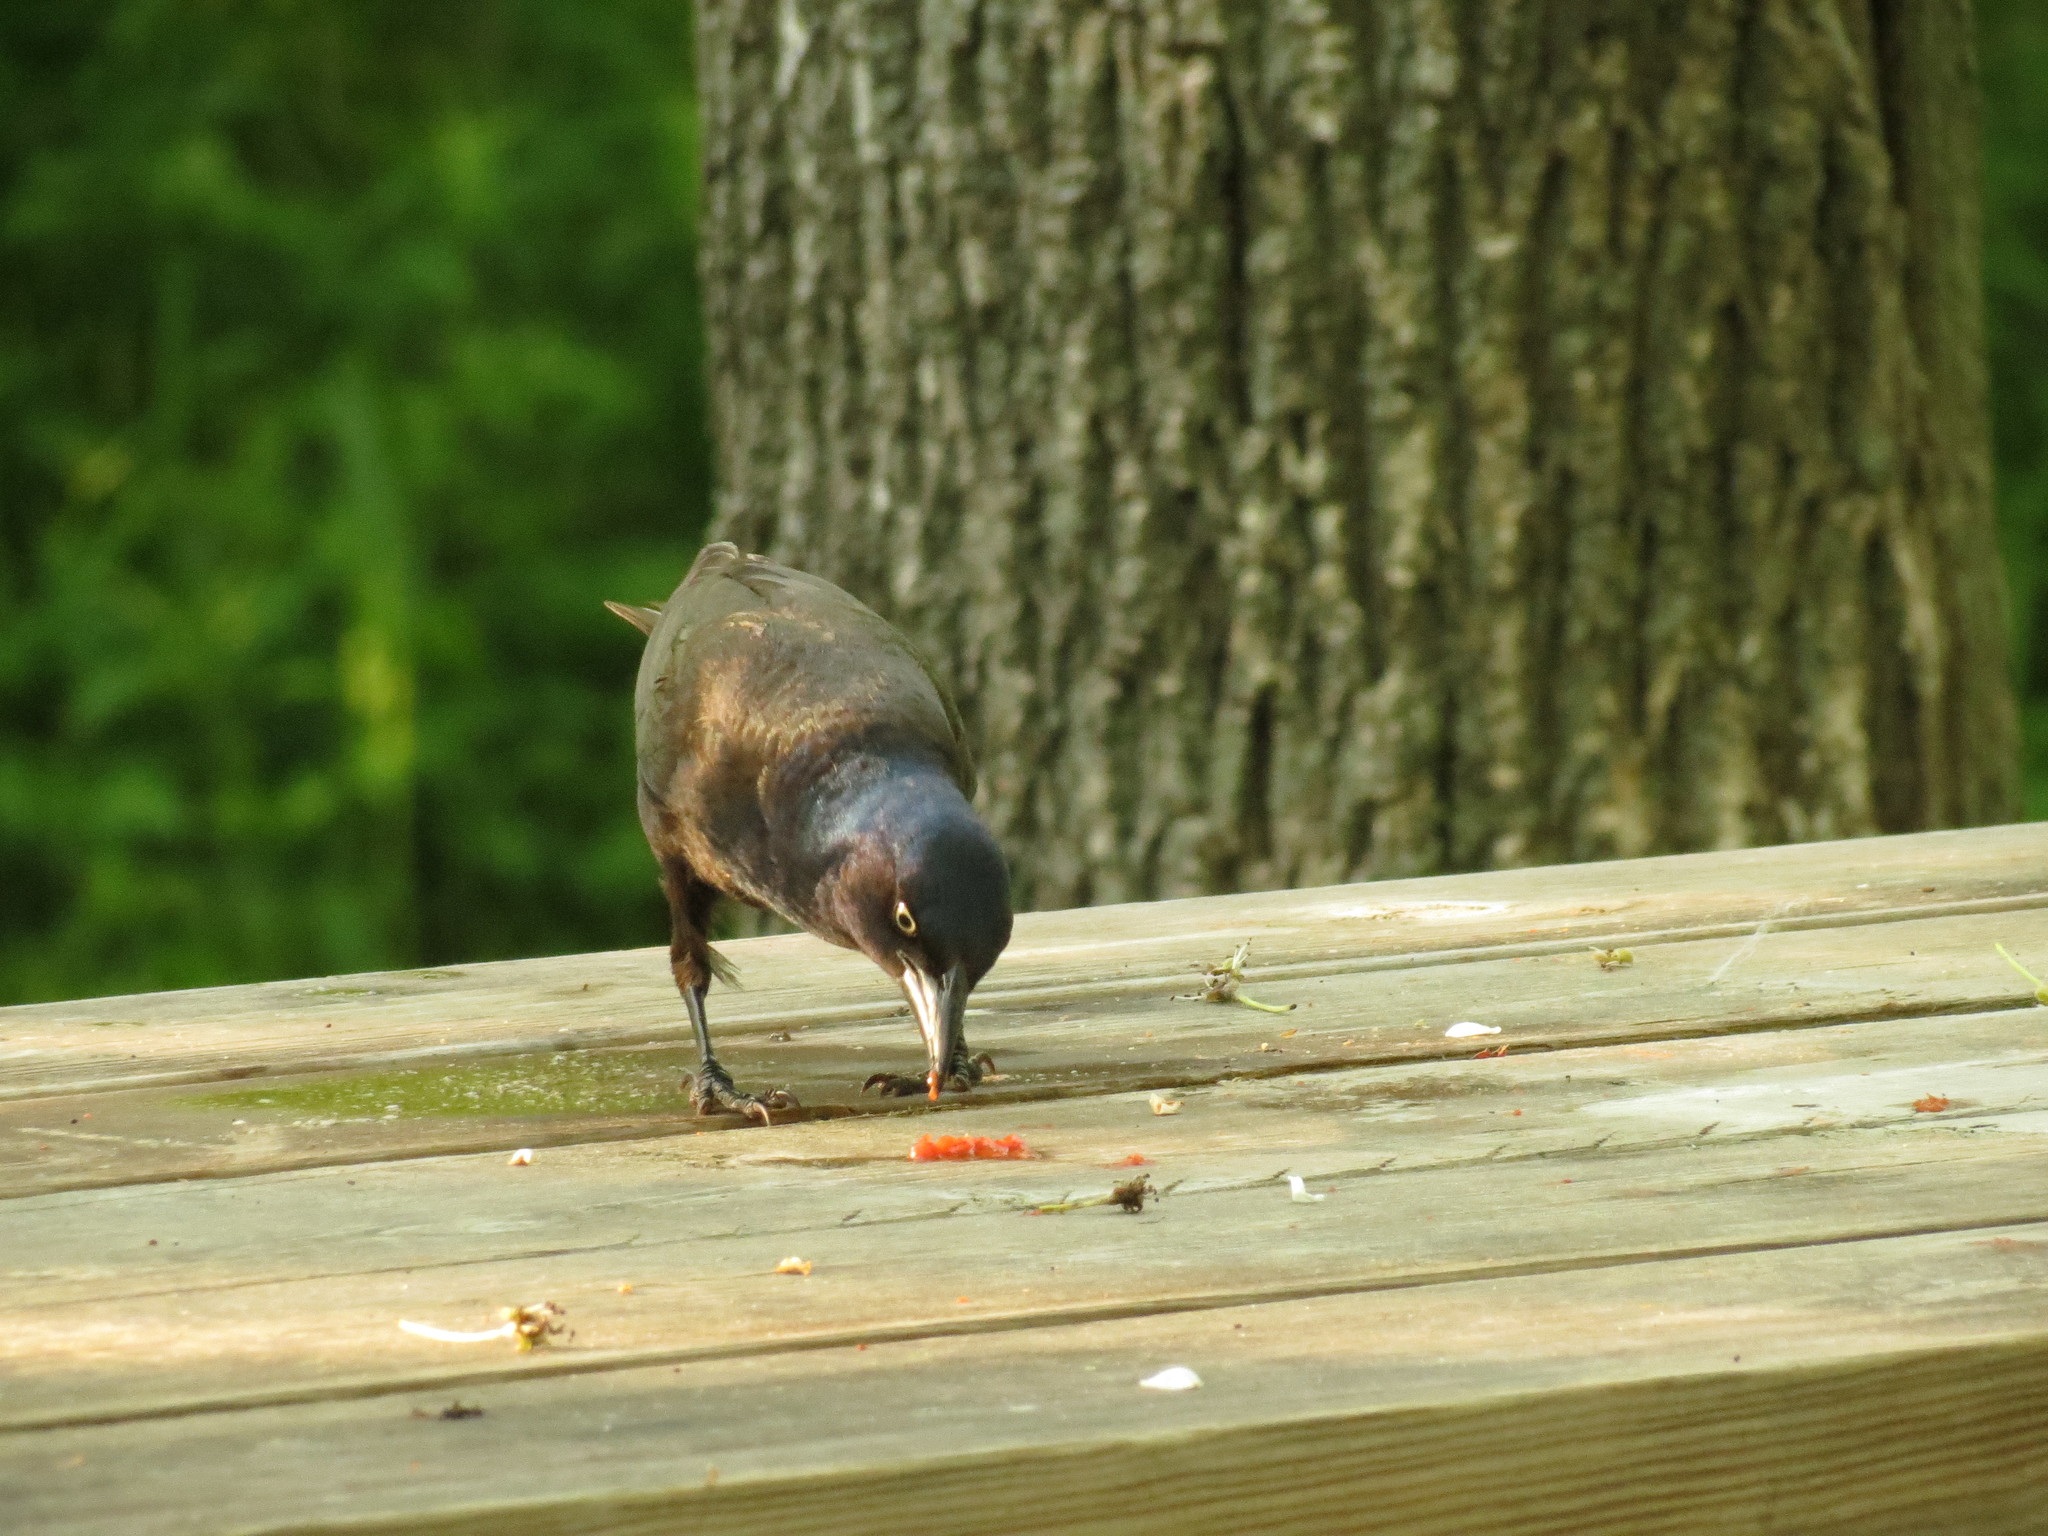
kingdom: Animalia
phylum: Chordata
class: Aves
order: Passeriformes
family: Icteridae
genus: Quiscalus
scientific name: Quiscalus quiscula
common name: Common grackle
